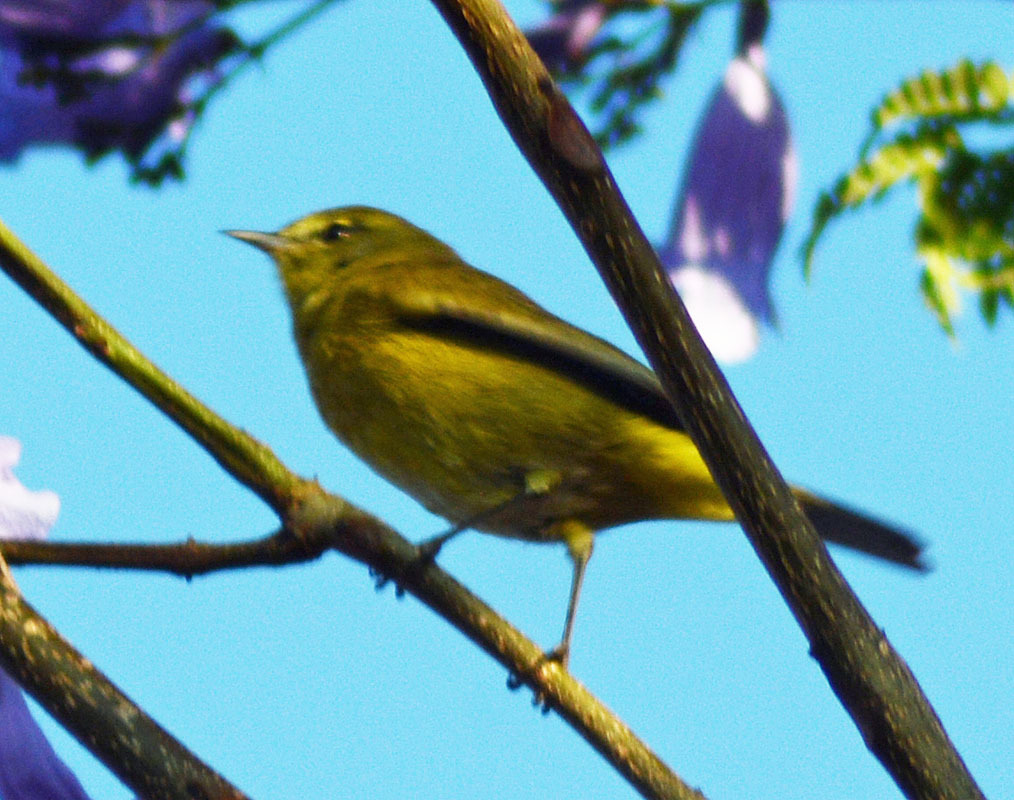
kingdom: Animalia
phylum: Chordata
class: Aves
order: Passeriformes
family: Parulidae
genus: Leiothlypis
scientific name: Leiothlypis celata
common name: Orange-crowned warbler
